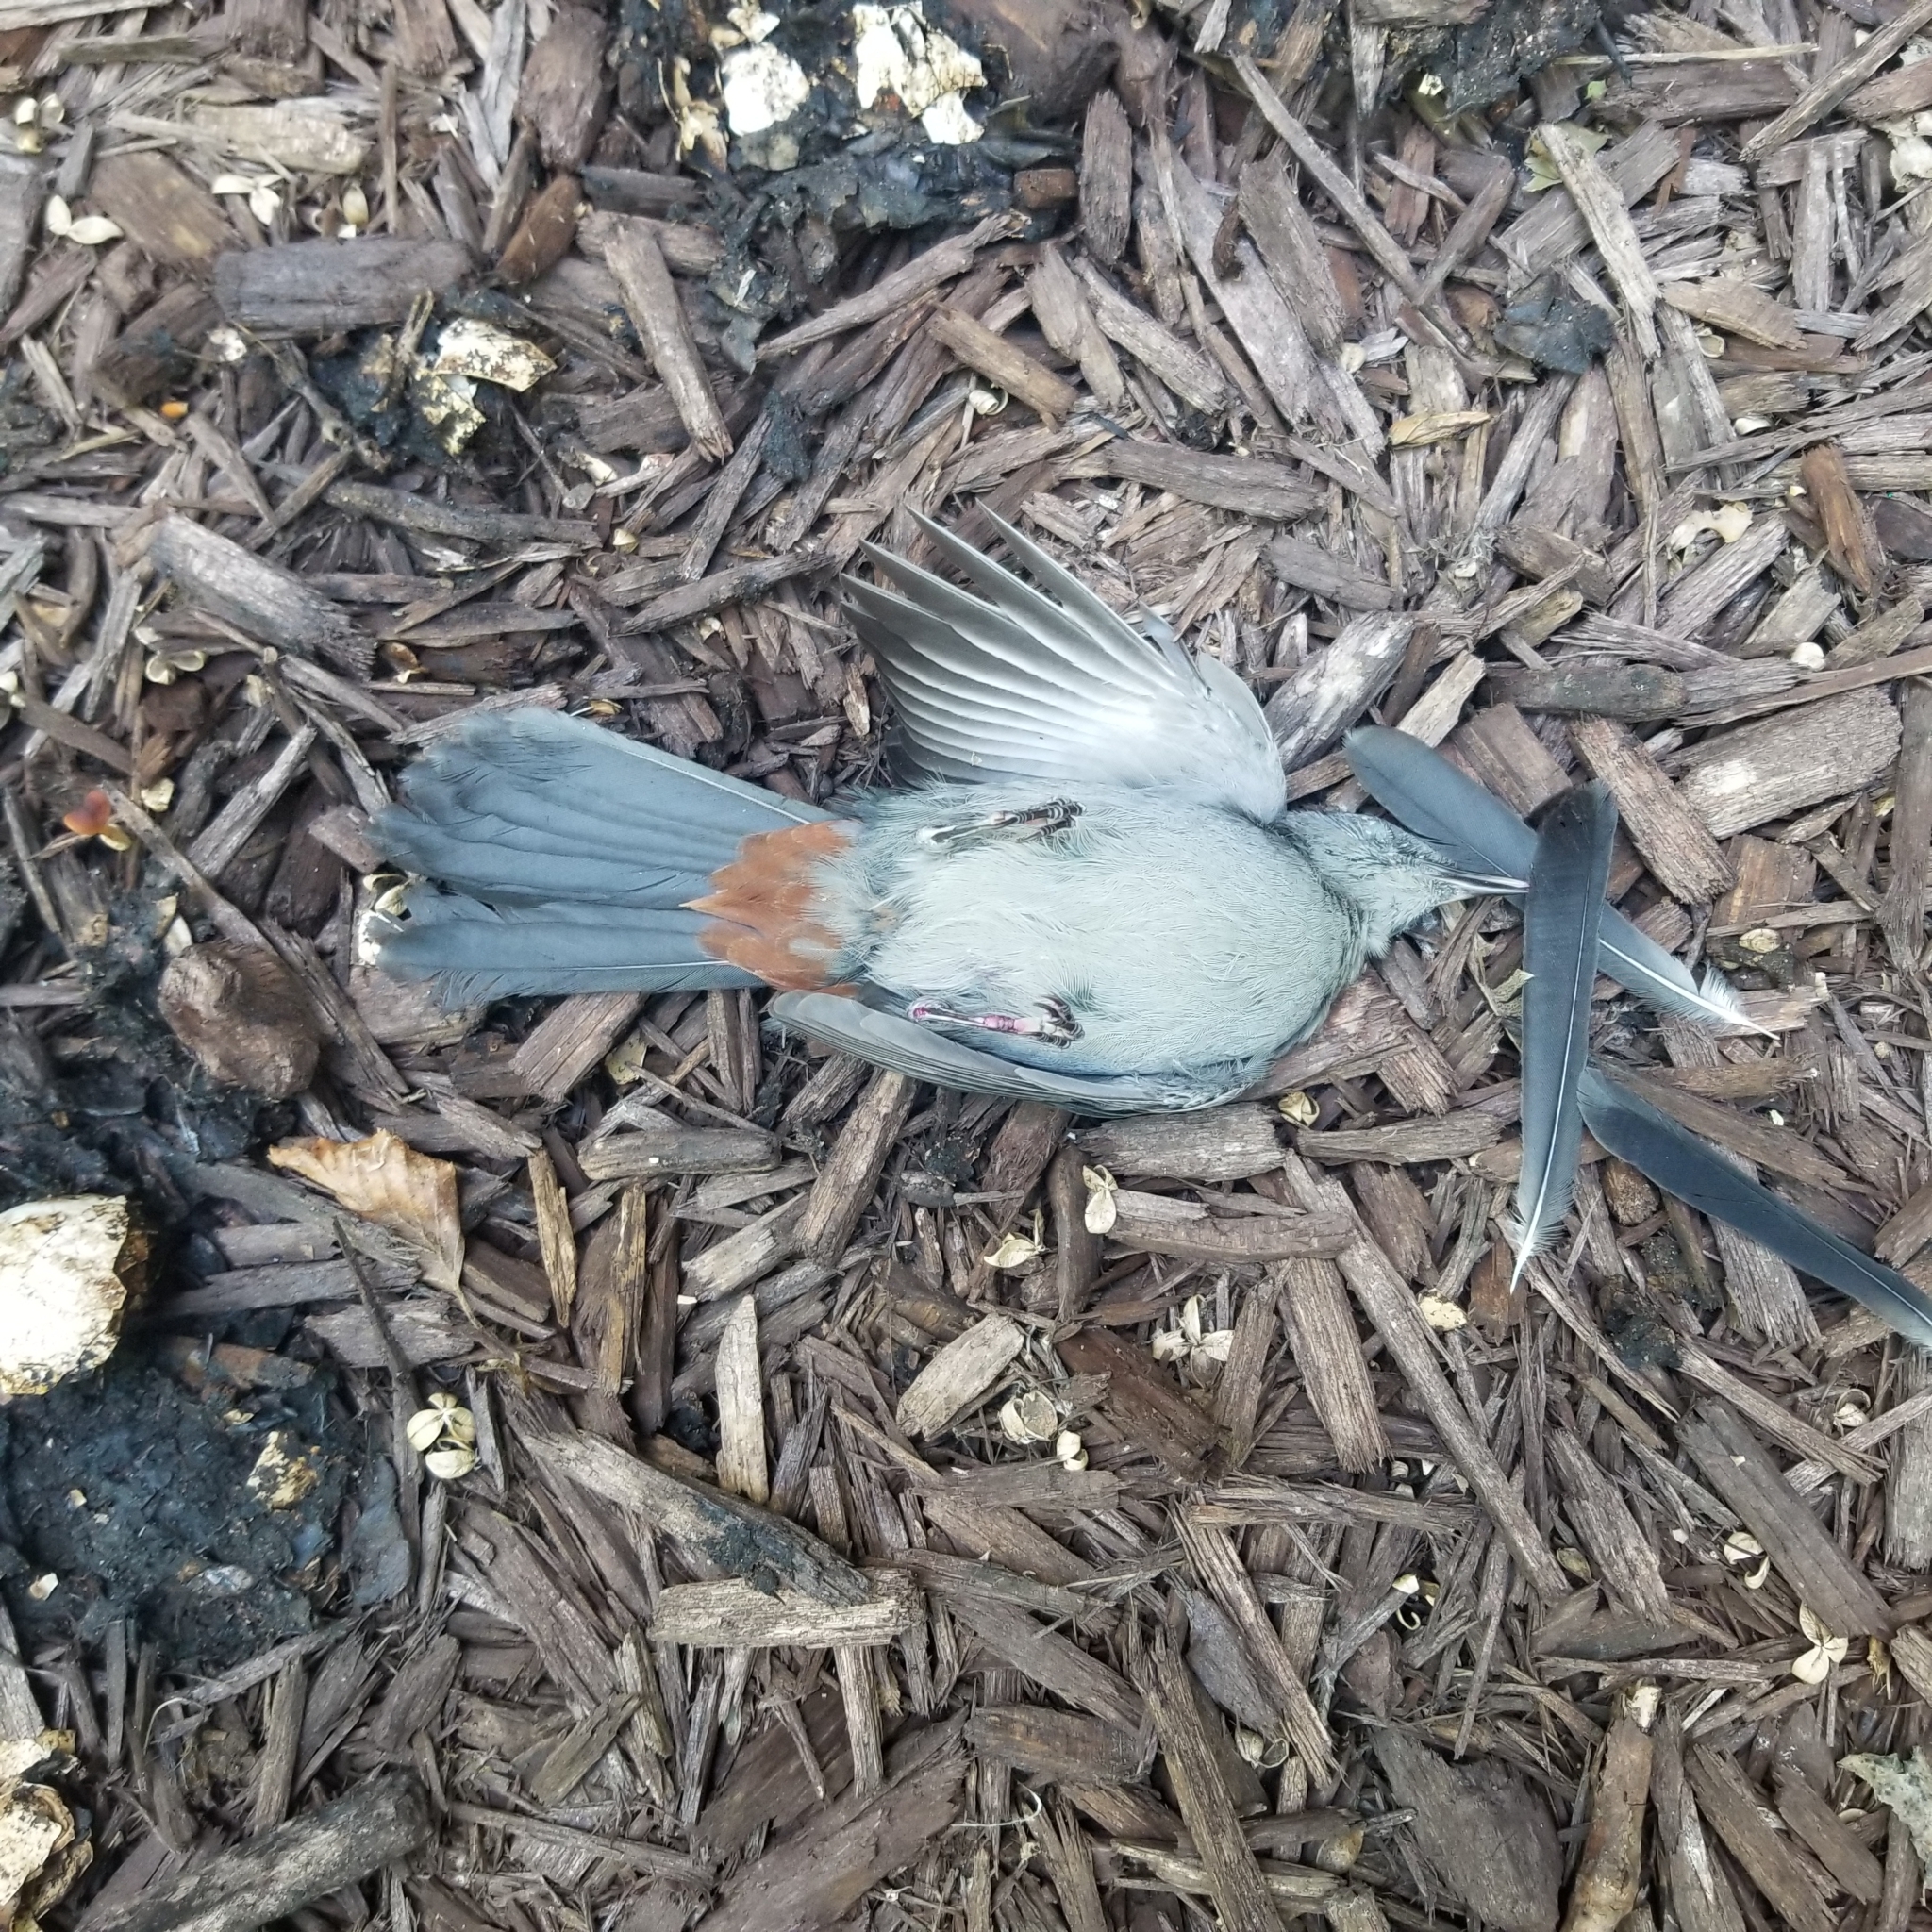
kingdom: Animalia
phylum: Chordata
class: Aves
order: Passeriformes
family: Mimidae
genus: Dumetella
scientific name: Dumetella carolinensis
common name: Gray catbird
